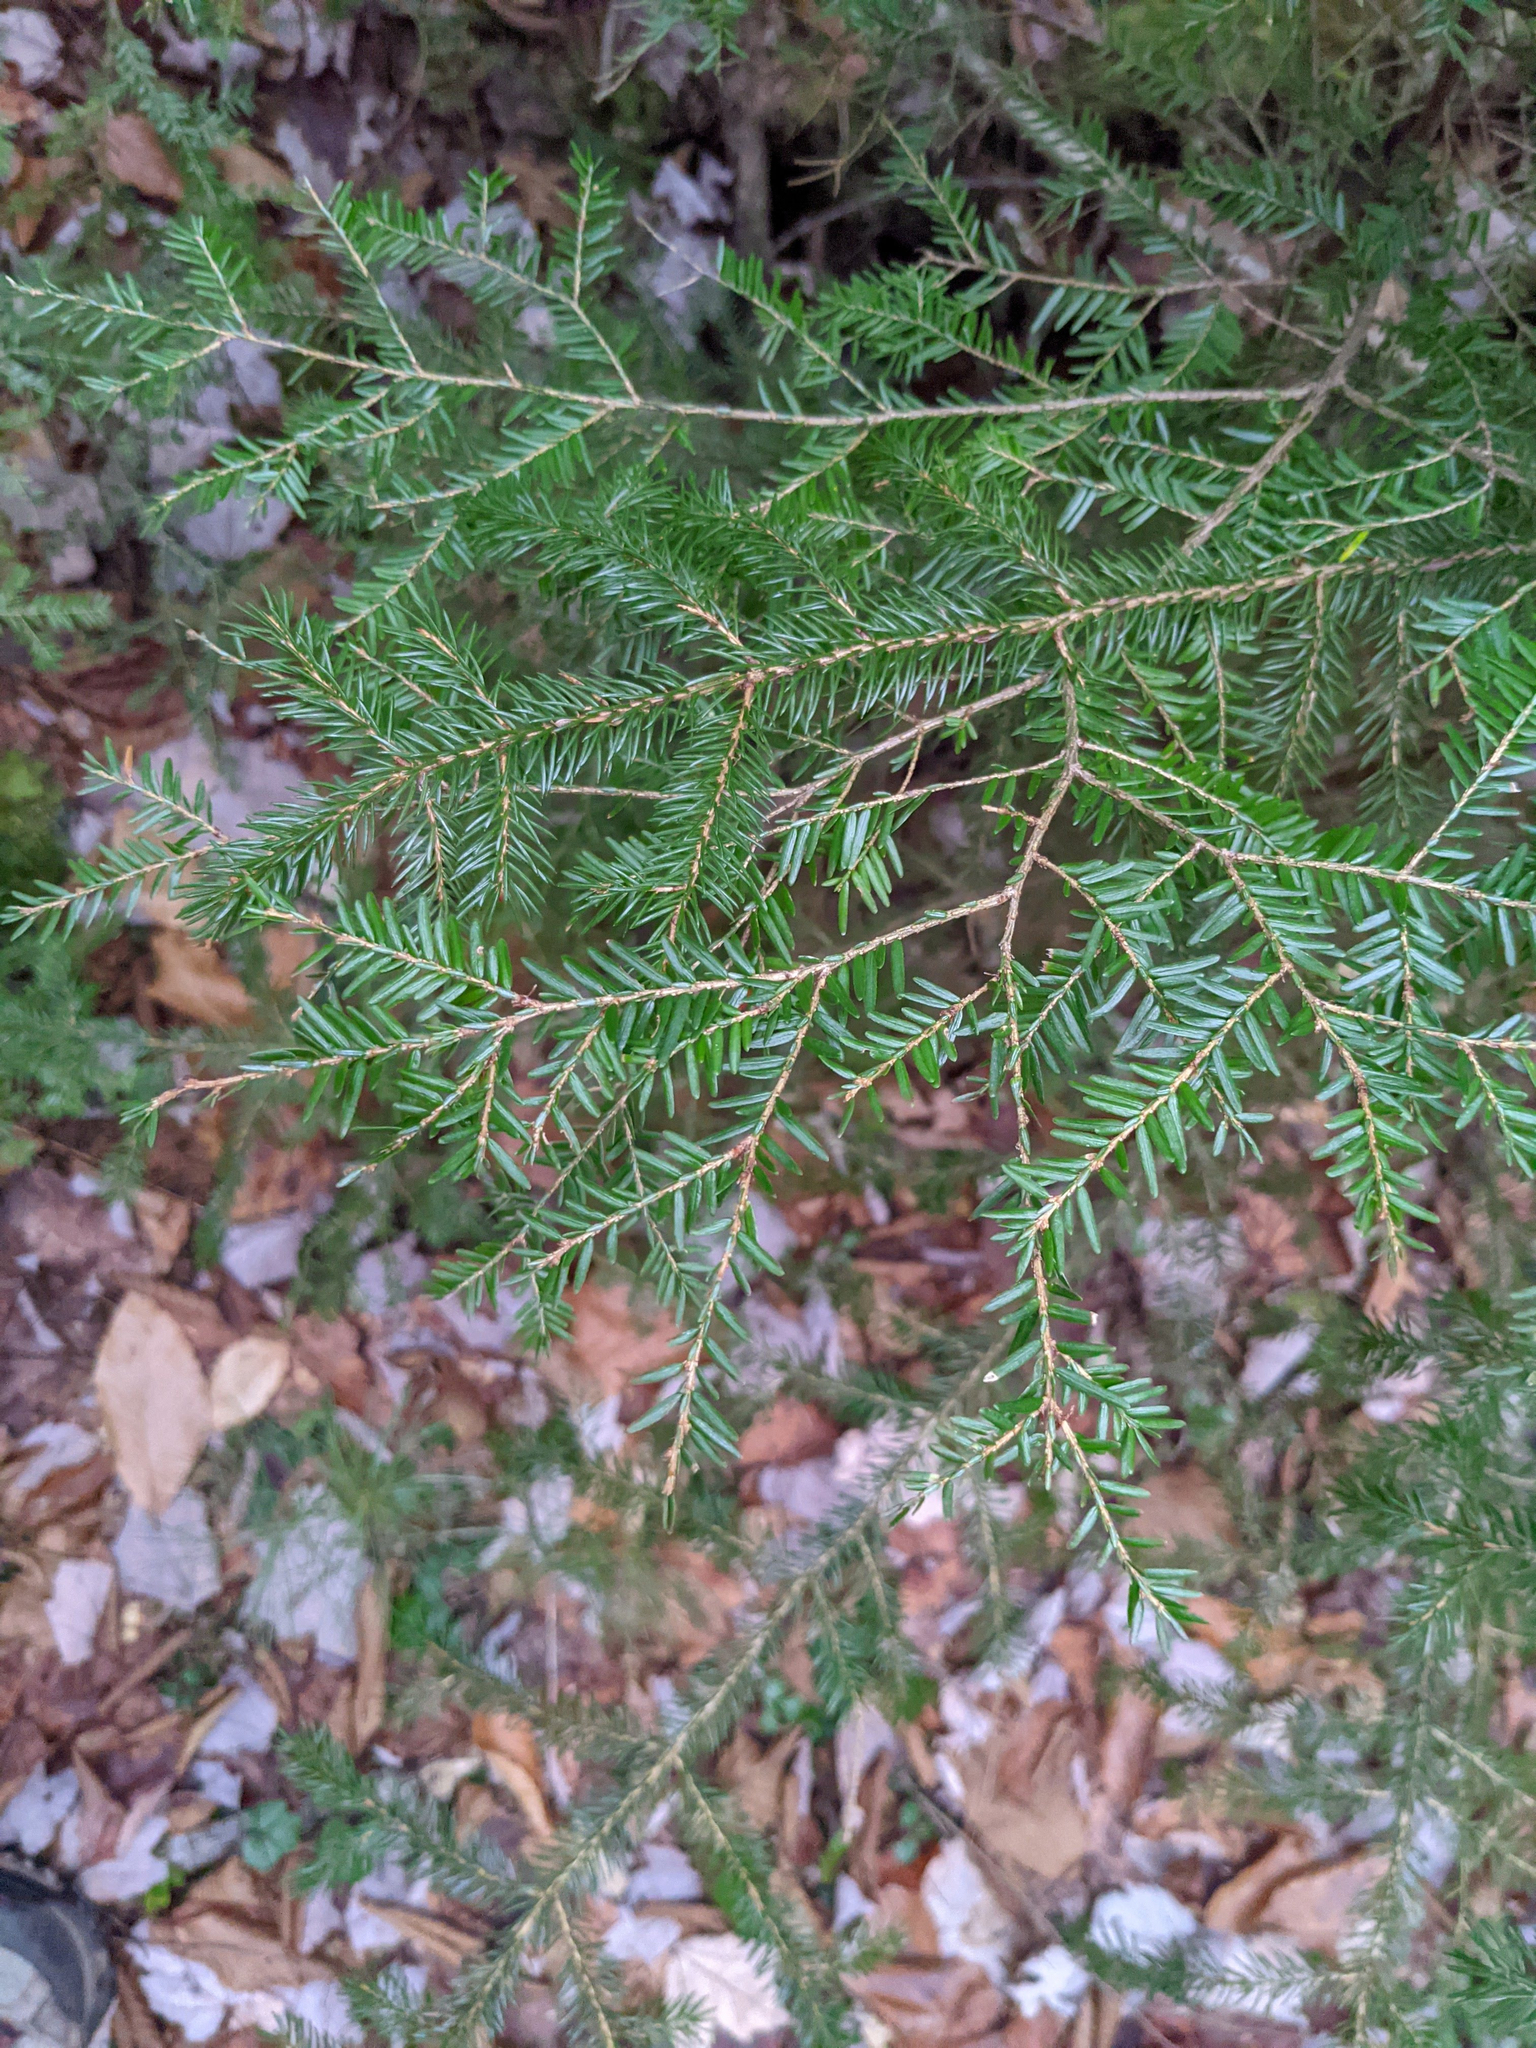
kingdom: Plantae
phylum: Tracheophyta
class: Pinopsida
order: Pinales
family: Pinaceae
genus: Tsuga
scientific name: Tsuga canadensis
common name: Eastern hemlock
